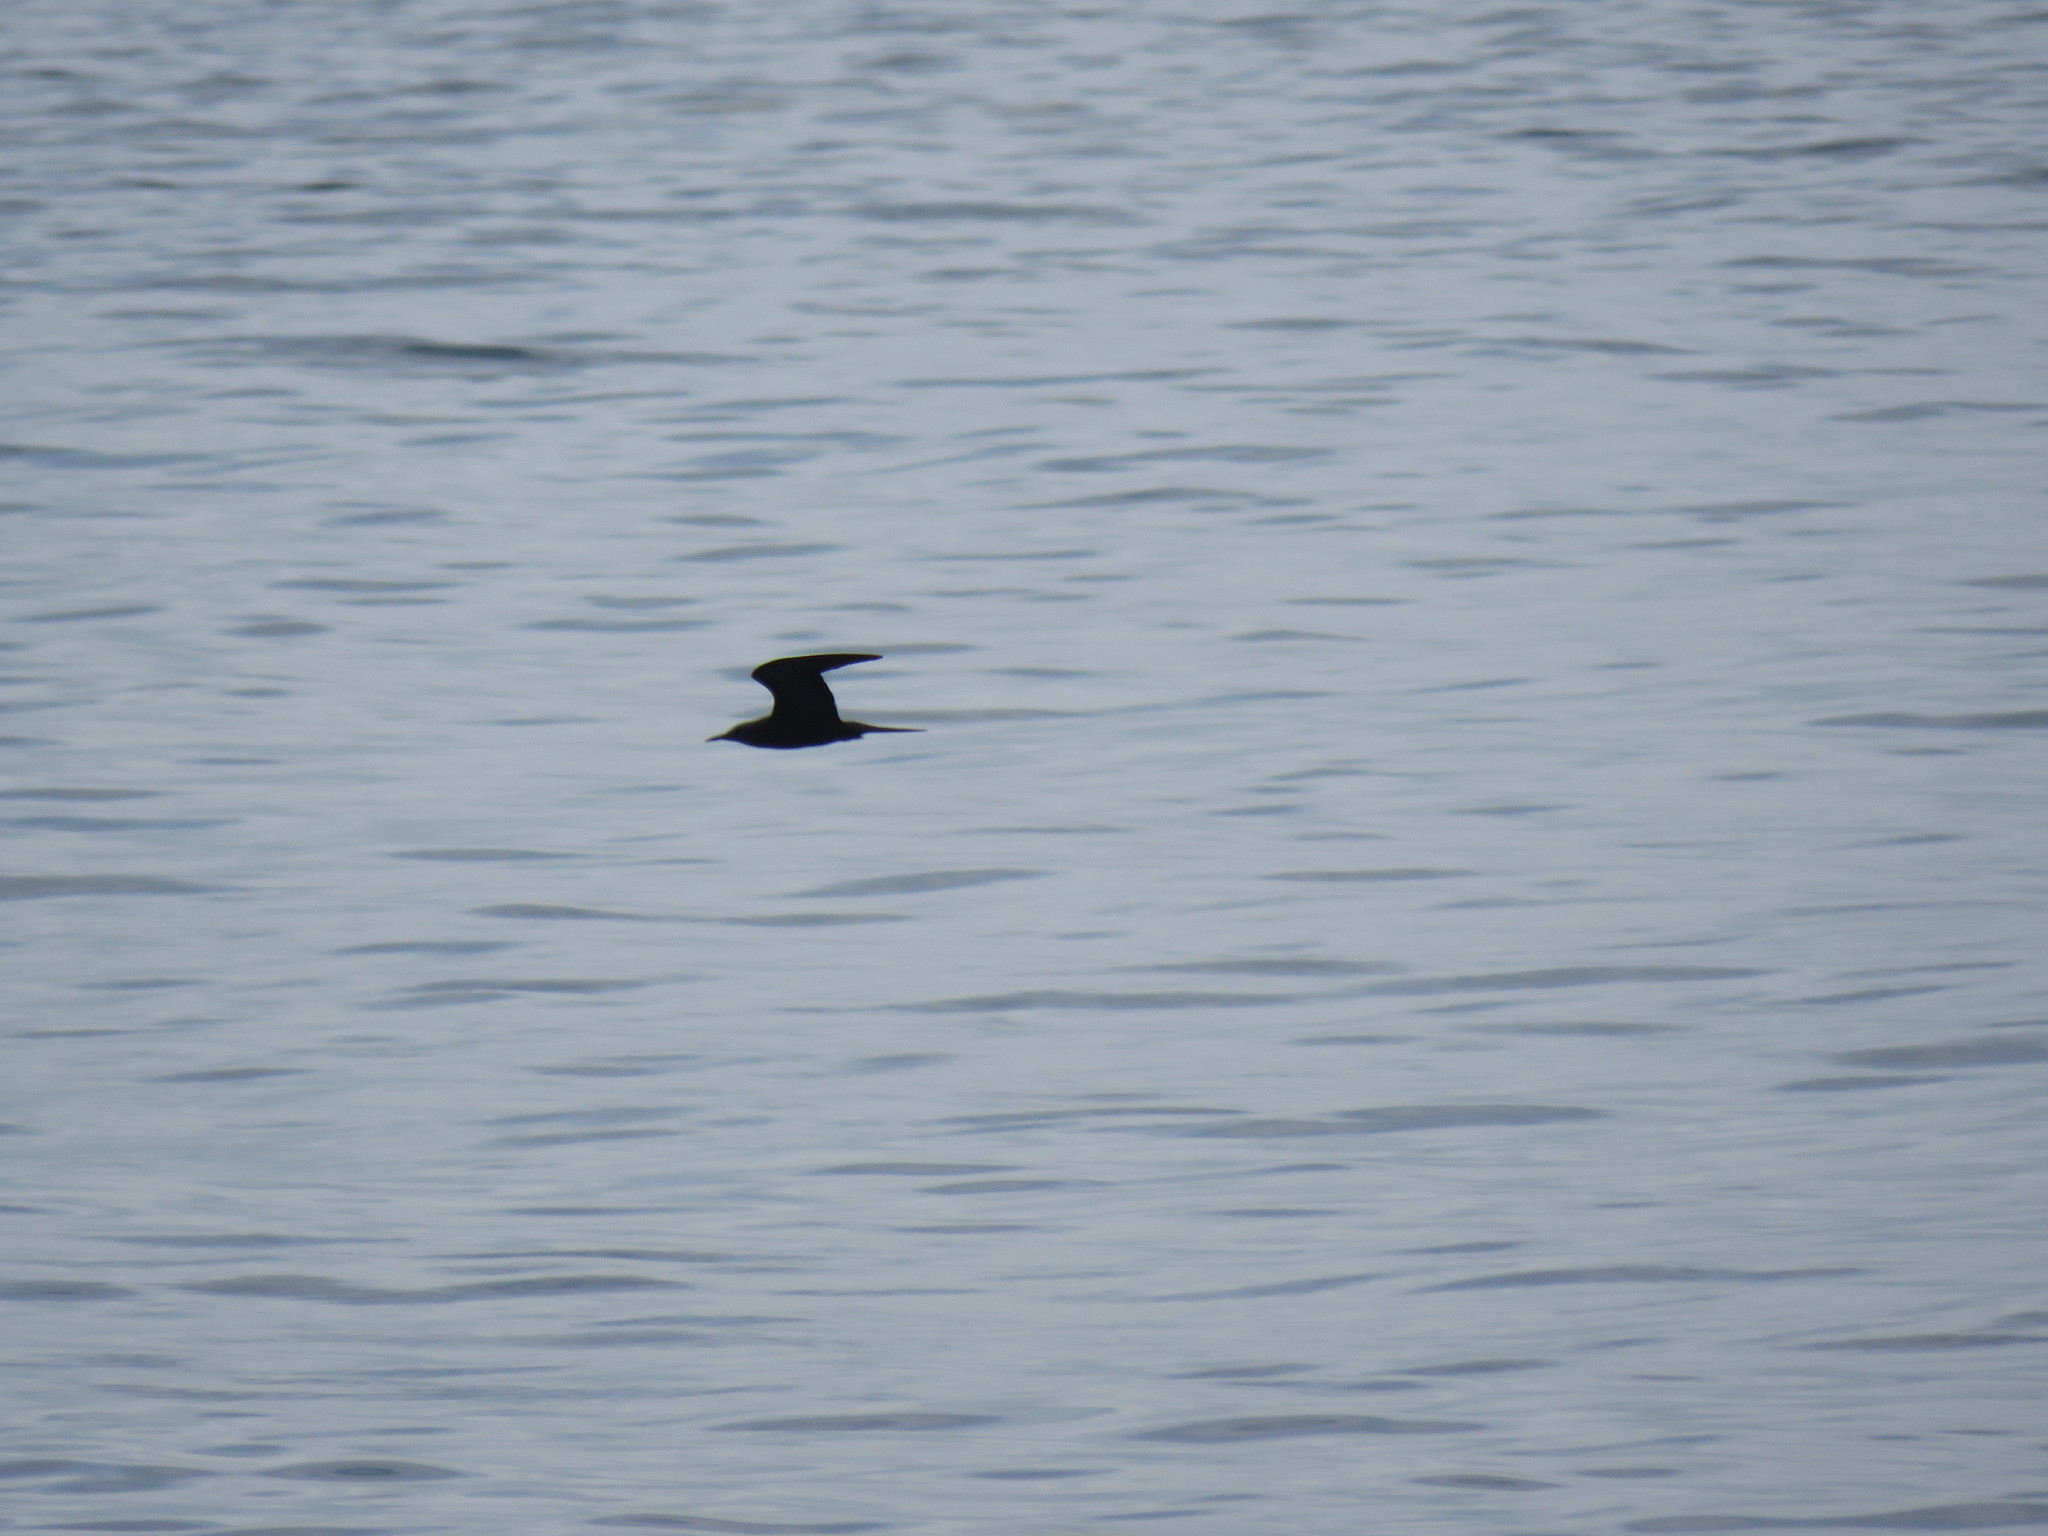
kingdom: Animalia
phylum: Chordata
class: Aves
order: Charadriiformes
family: Laridae
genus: Anous
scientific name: Anous stolidus
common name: Brown noddy
